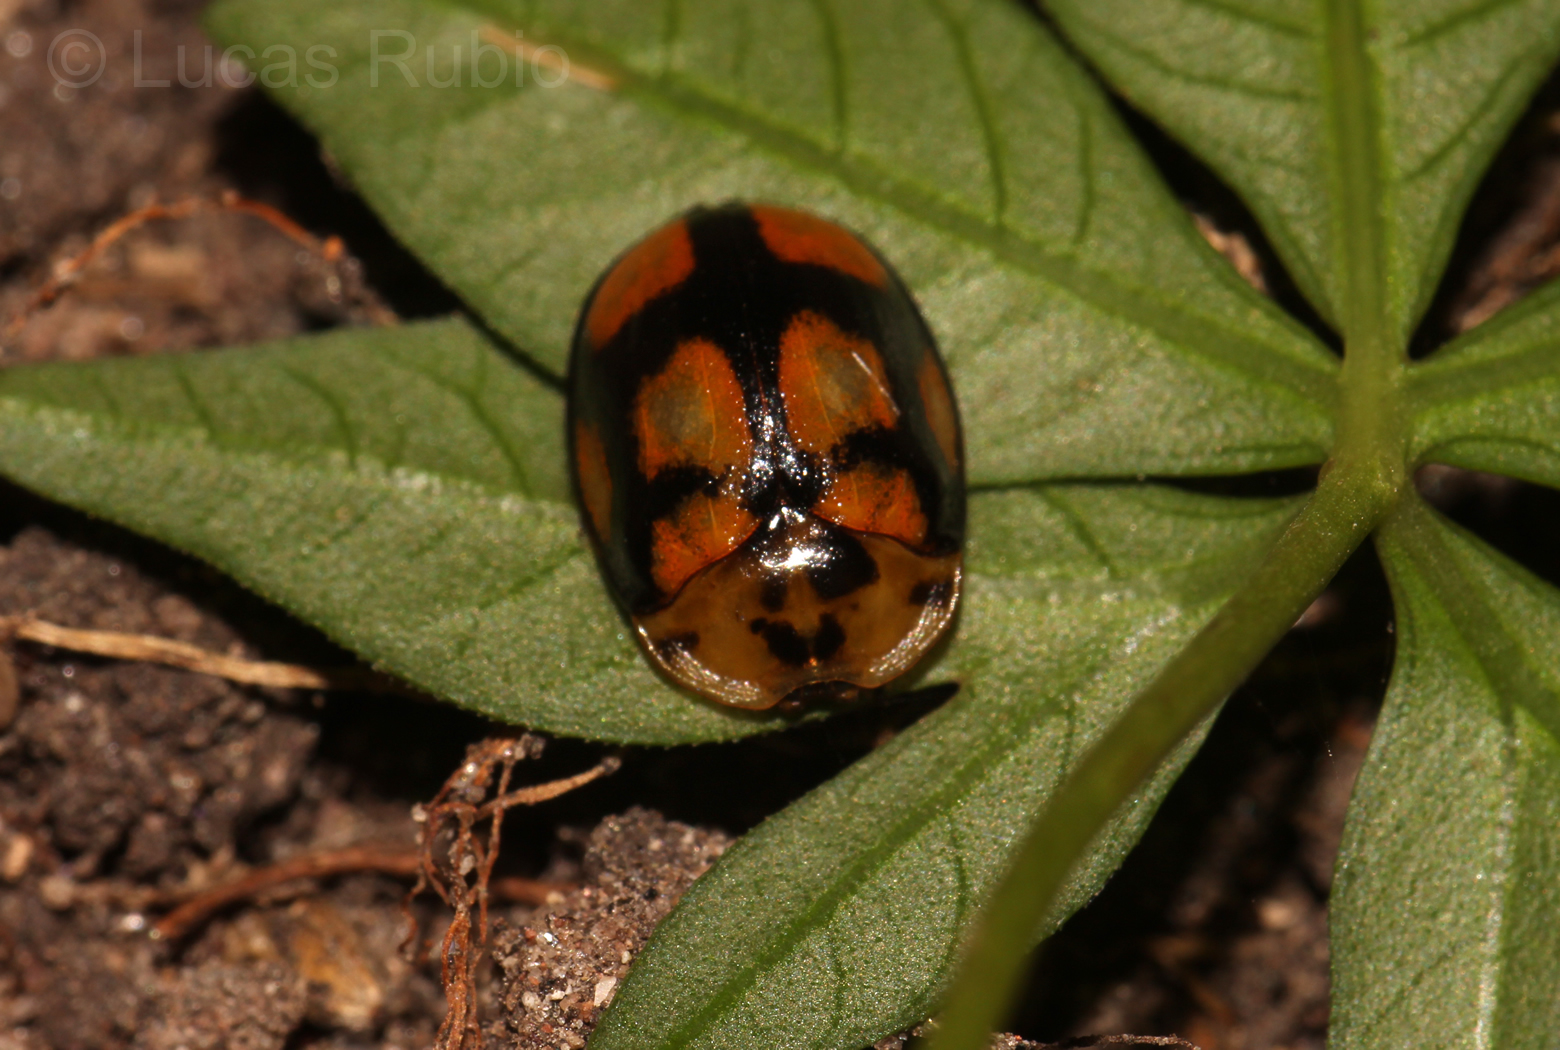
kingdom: Animalia
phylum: Arthropoda
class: Insecta
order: Coleoptera
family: Chrysomelidae
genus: Chelymorpha
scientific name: Chelymorpha areata
